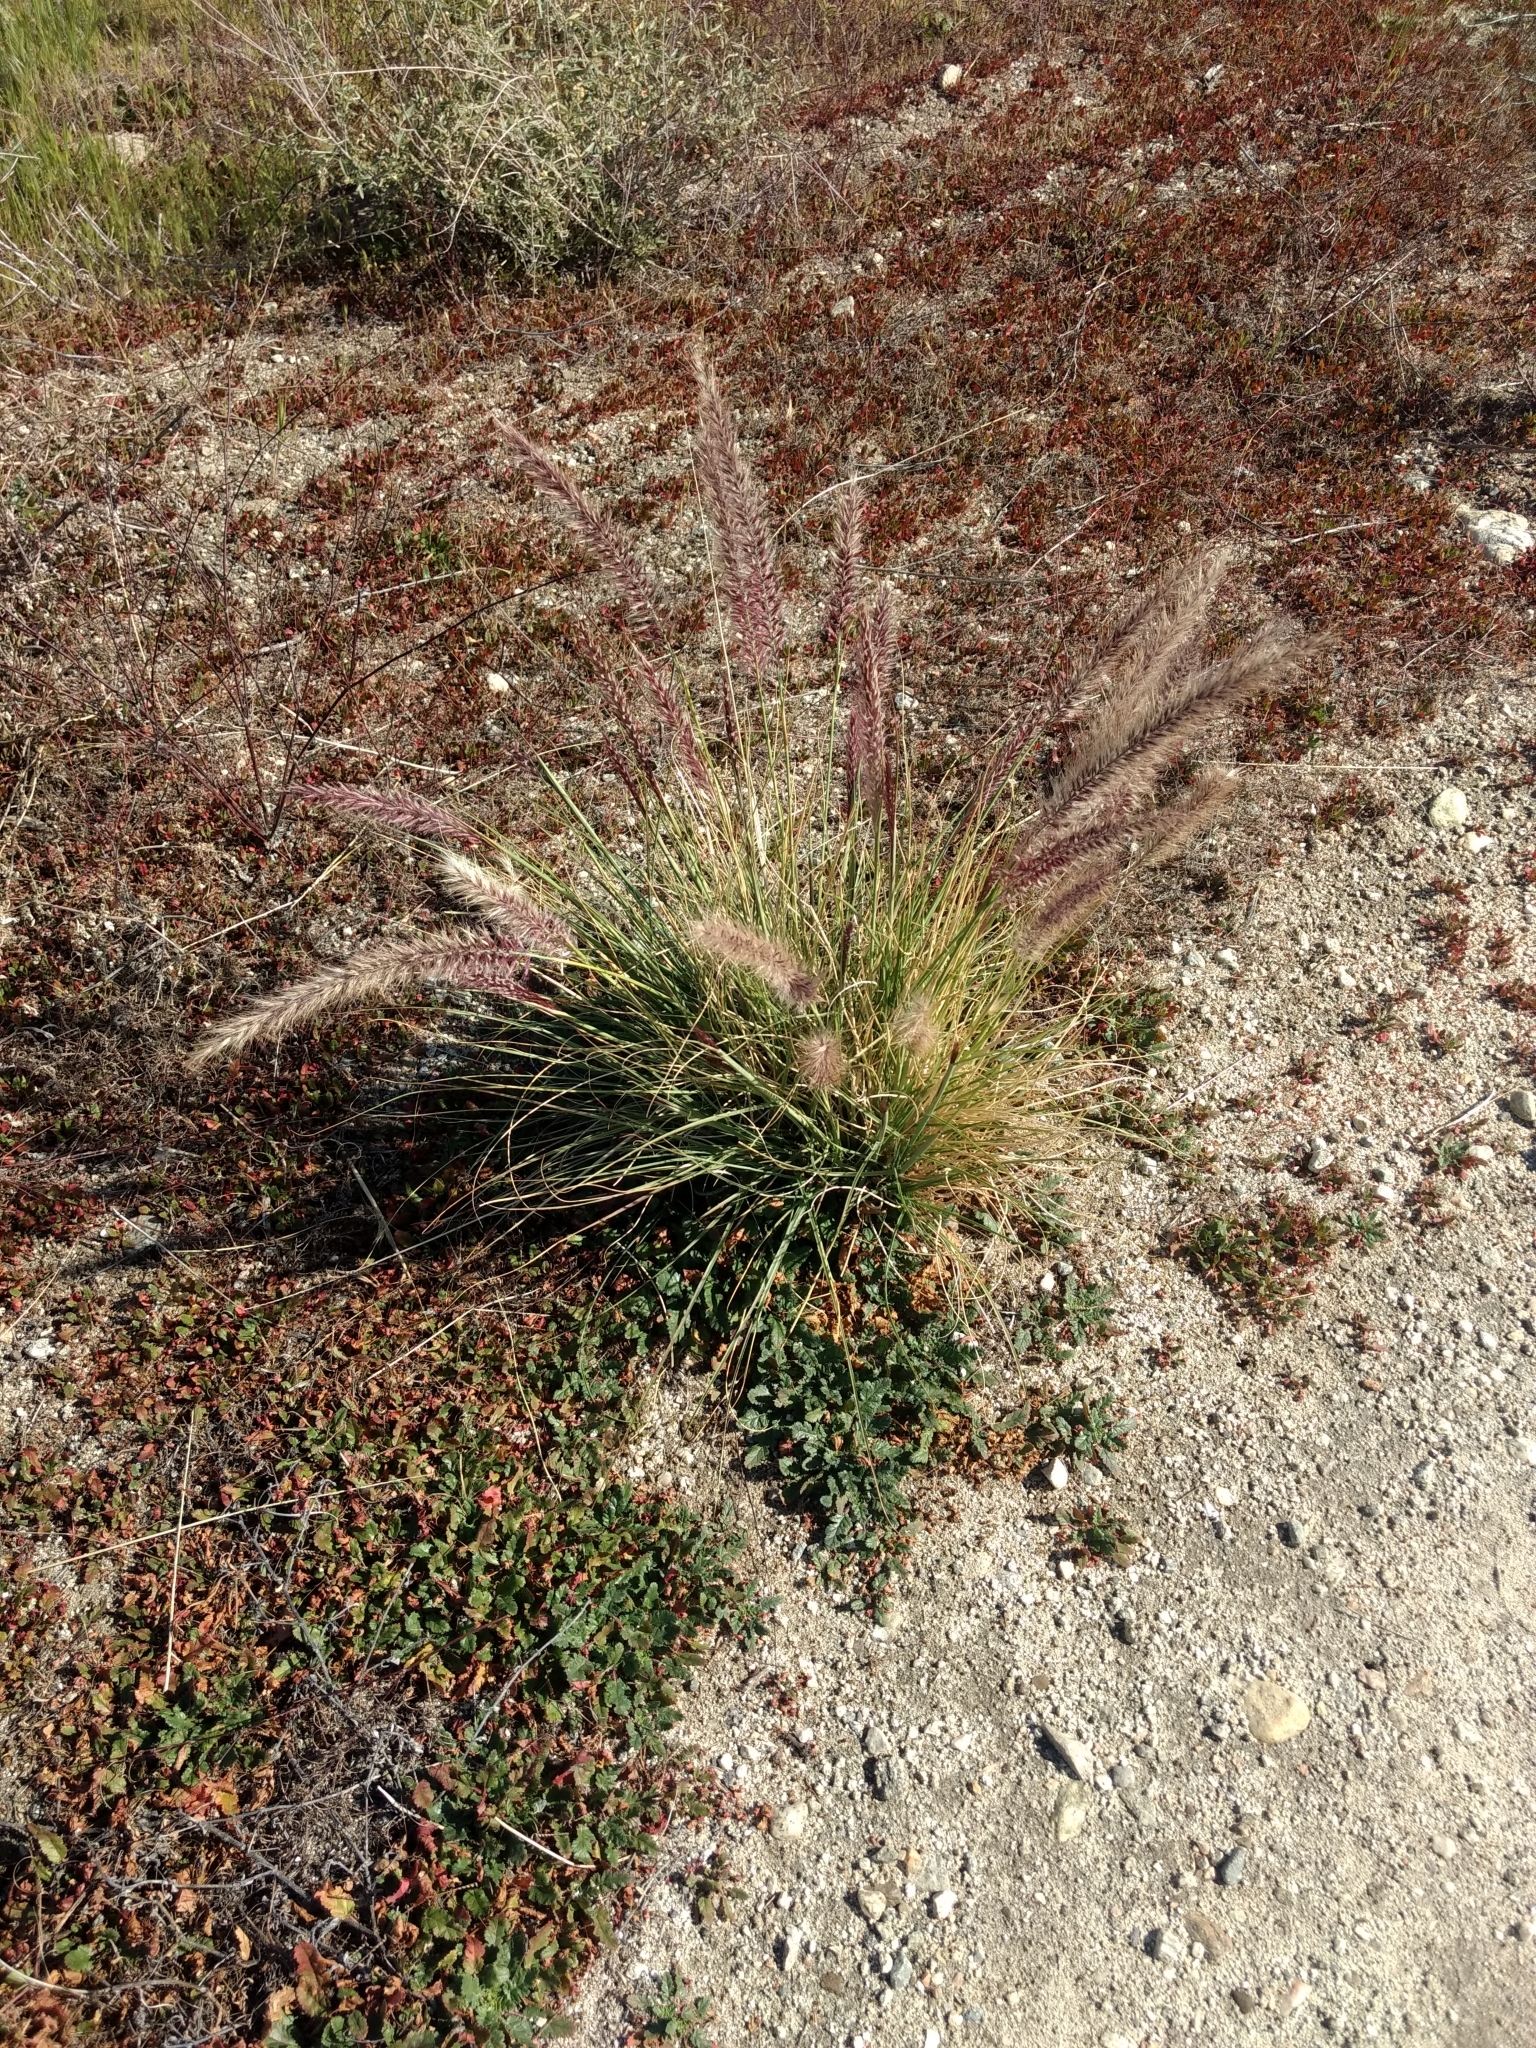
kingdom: Plantae
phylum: Tracheophyta
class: Liliopsida
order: Poales
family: Poaceae
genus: Cenchrus
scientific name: Cenchrus setaceus
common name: Crimson fountaingrass
